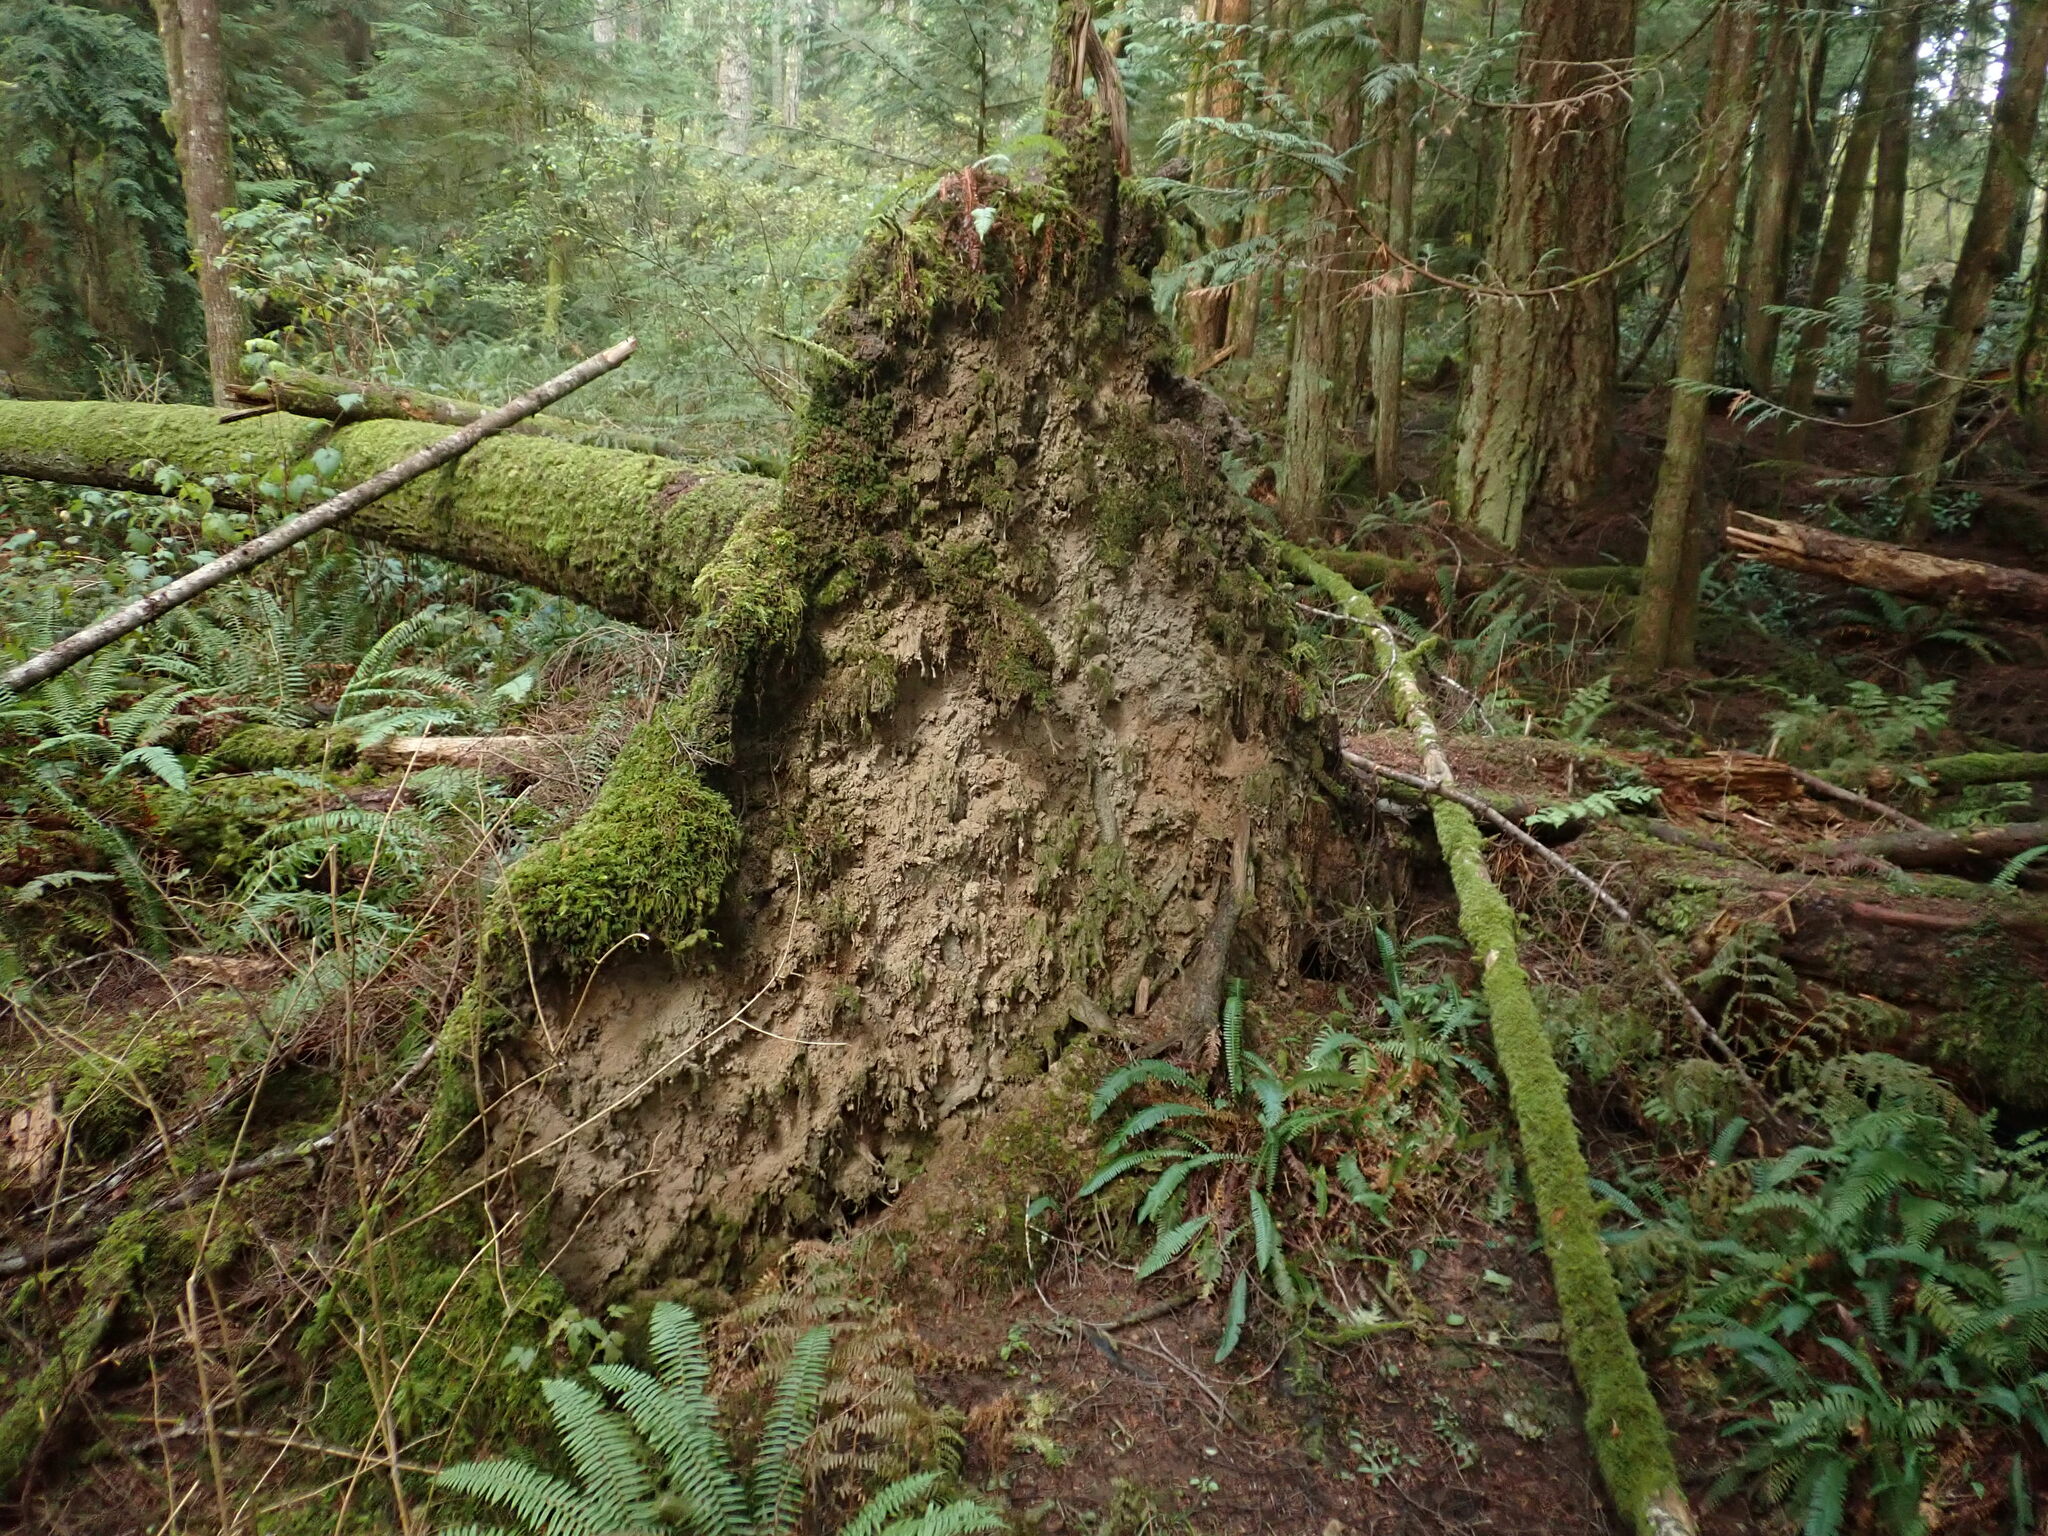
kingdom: Plantae
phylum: Bryophyta
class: Bryopsida
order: Dicranales
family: Schistostegaceae
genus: Schistostega
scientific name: Schistostega pennata
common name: Luminous moss
